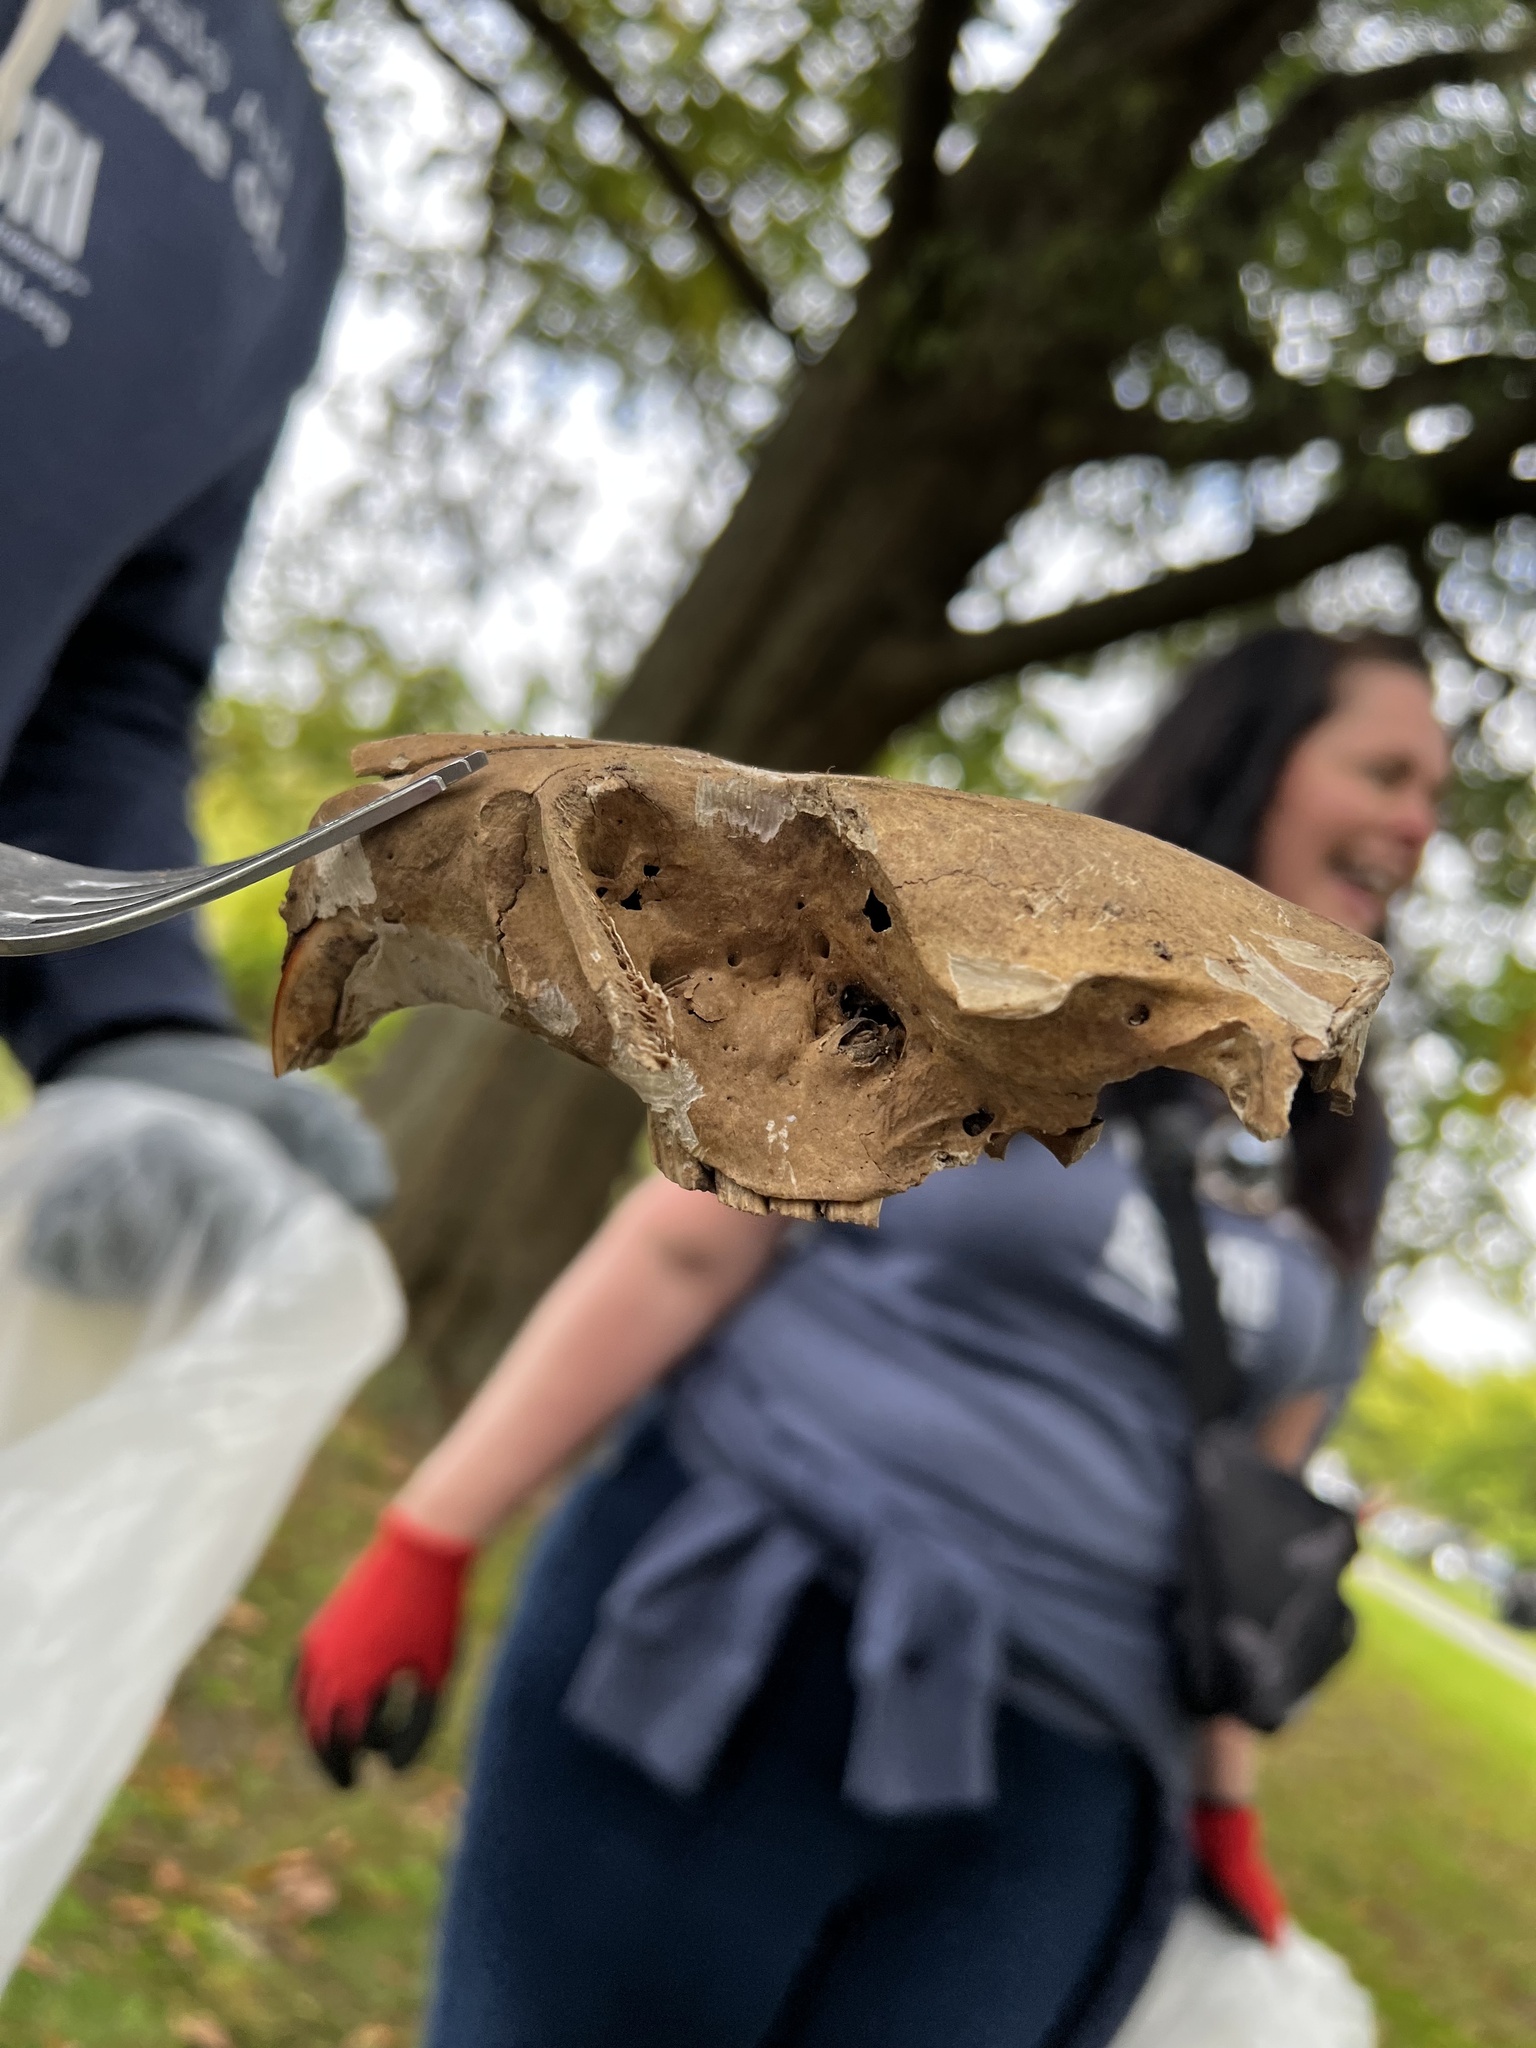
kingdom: Animalia
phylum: Chordata
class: Mammalia
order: Rodentia
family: Castoridae
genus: Castor
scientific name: Castor canadensis
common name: American beaver
